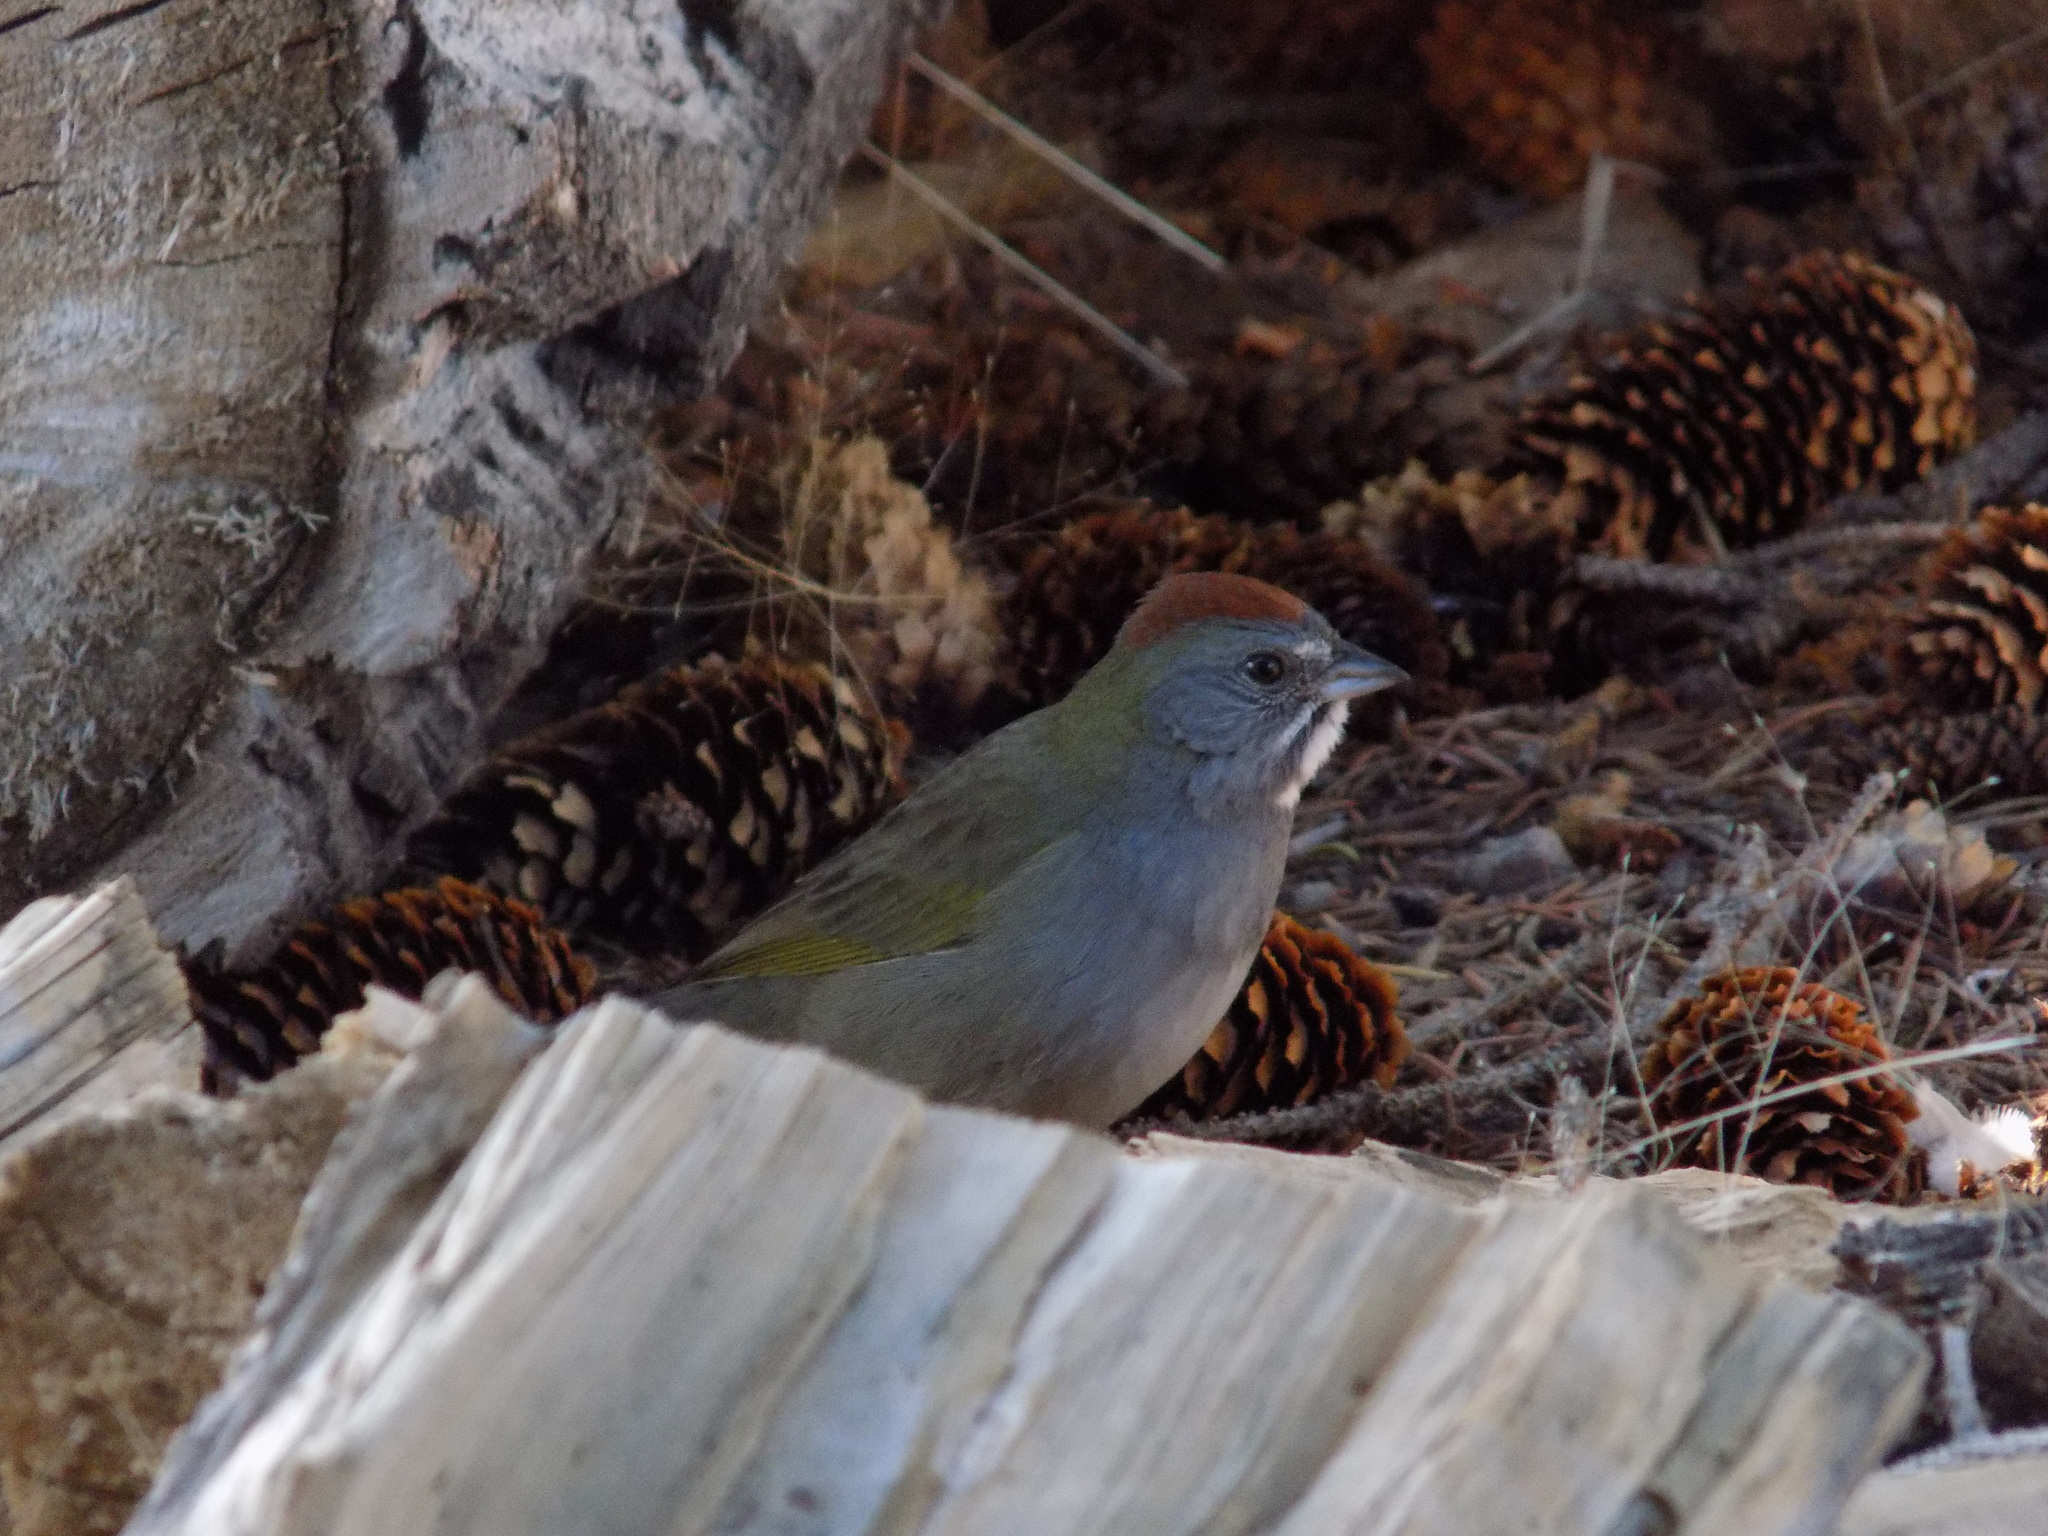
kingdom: Animalia
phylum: Chordata
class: Aves
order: Passeriformes
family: Passerellidae
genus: Pipilo
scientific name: Pipilo chlorurus
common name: Green-tailed towhee
